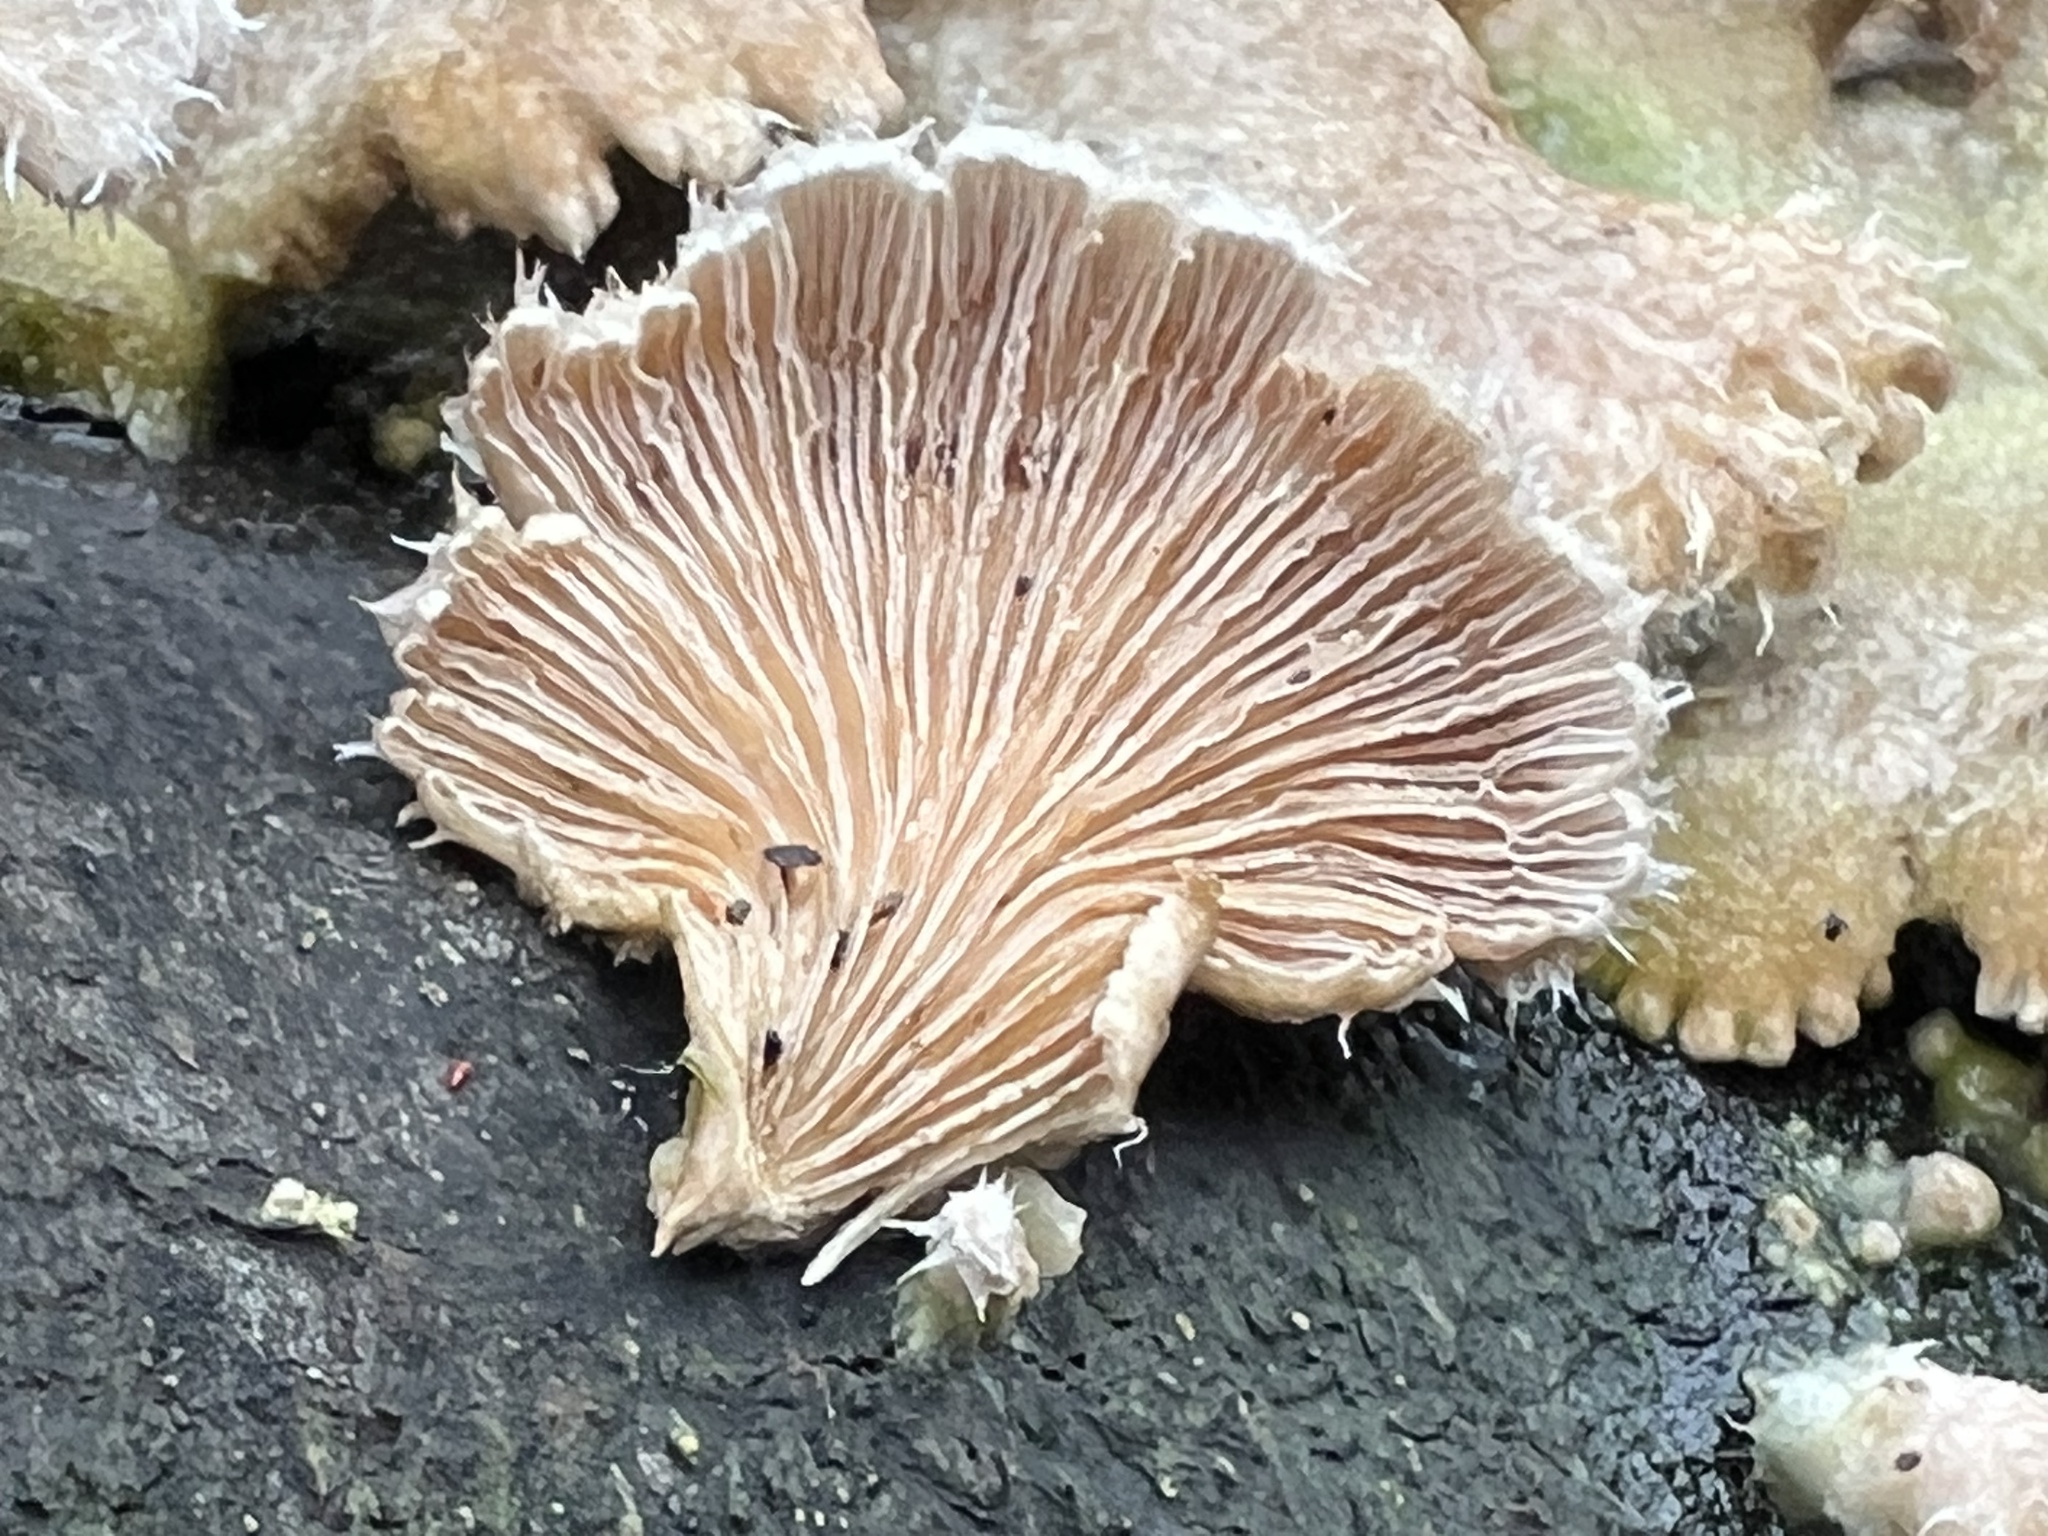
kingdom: Fungi
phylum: Basidiomycota
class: Agaricomycetes
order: Agaricales
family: Schizophyllaceae
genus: Schizophyllum
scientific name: Schizophyllum commune
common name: Common porecrust
